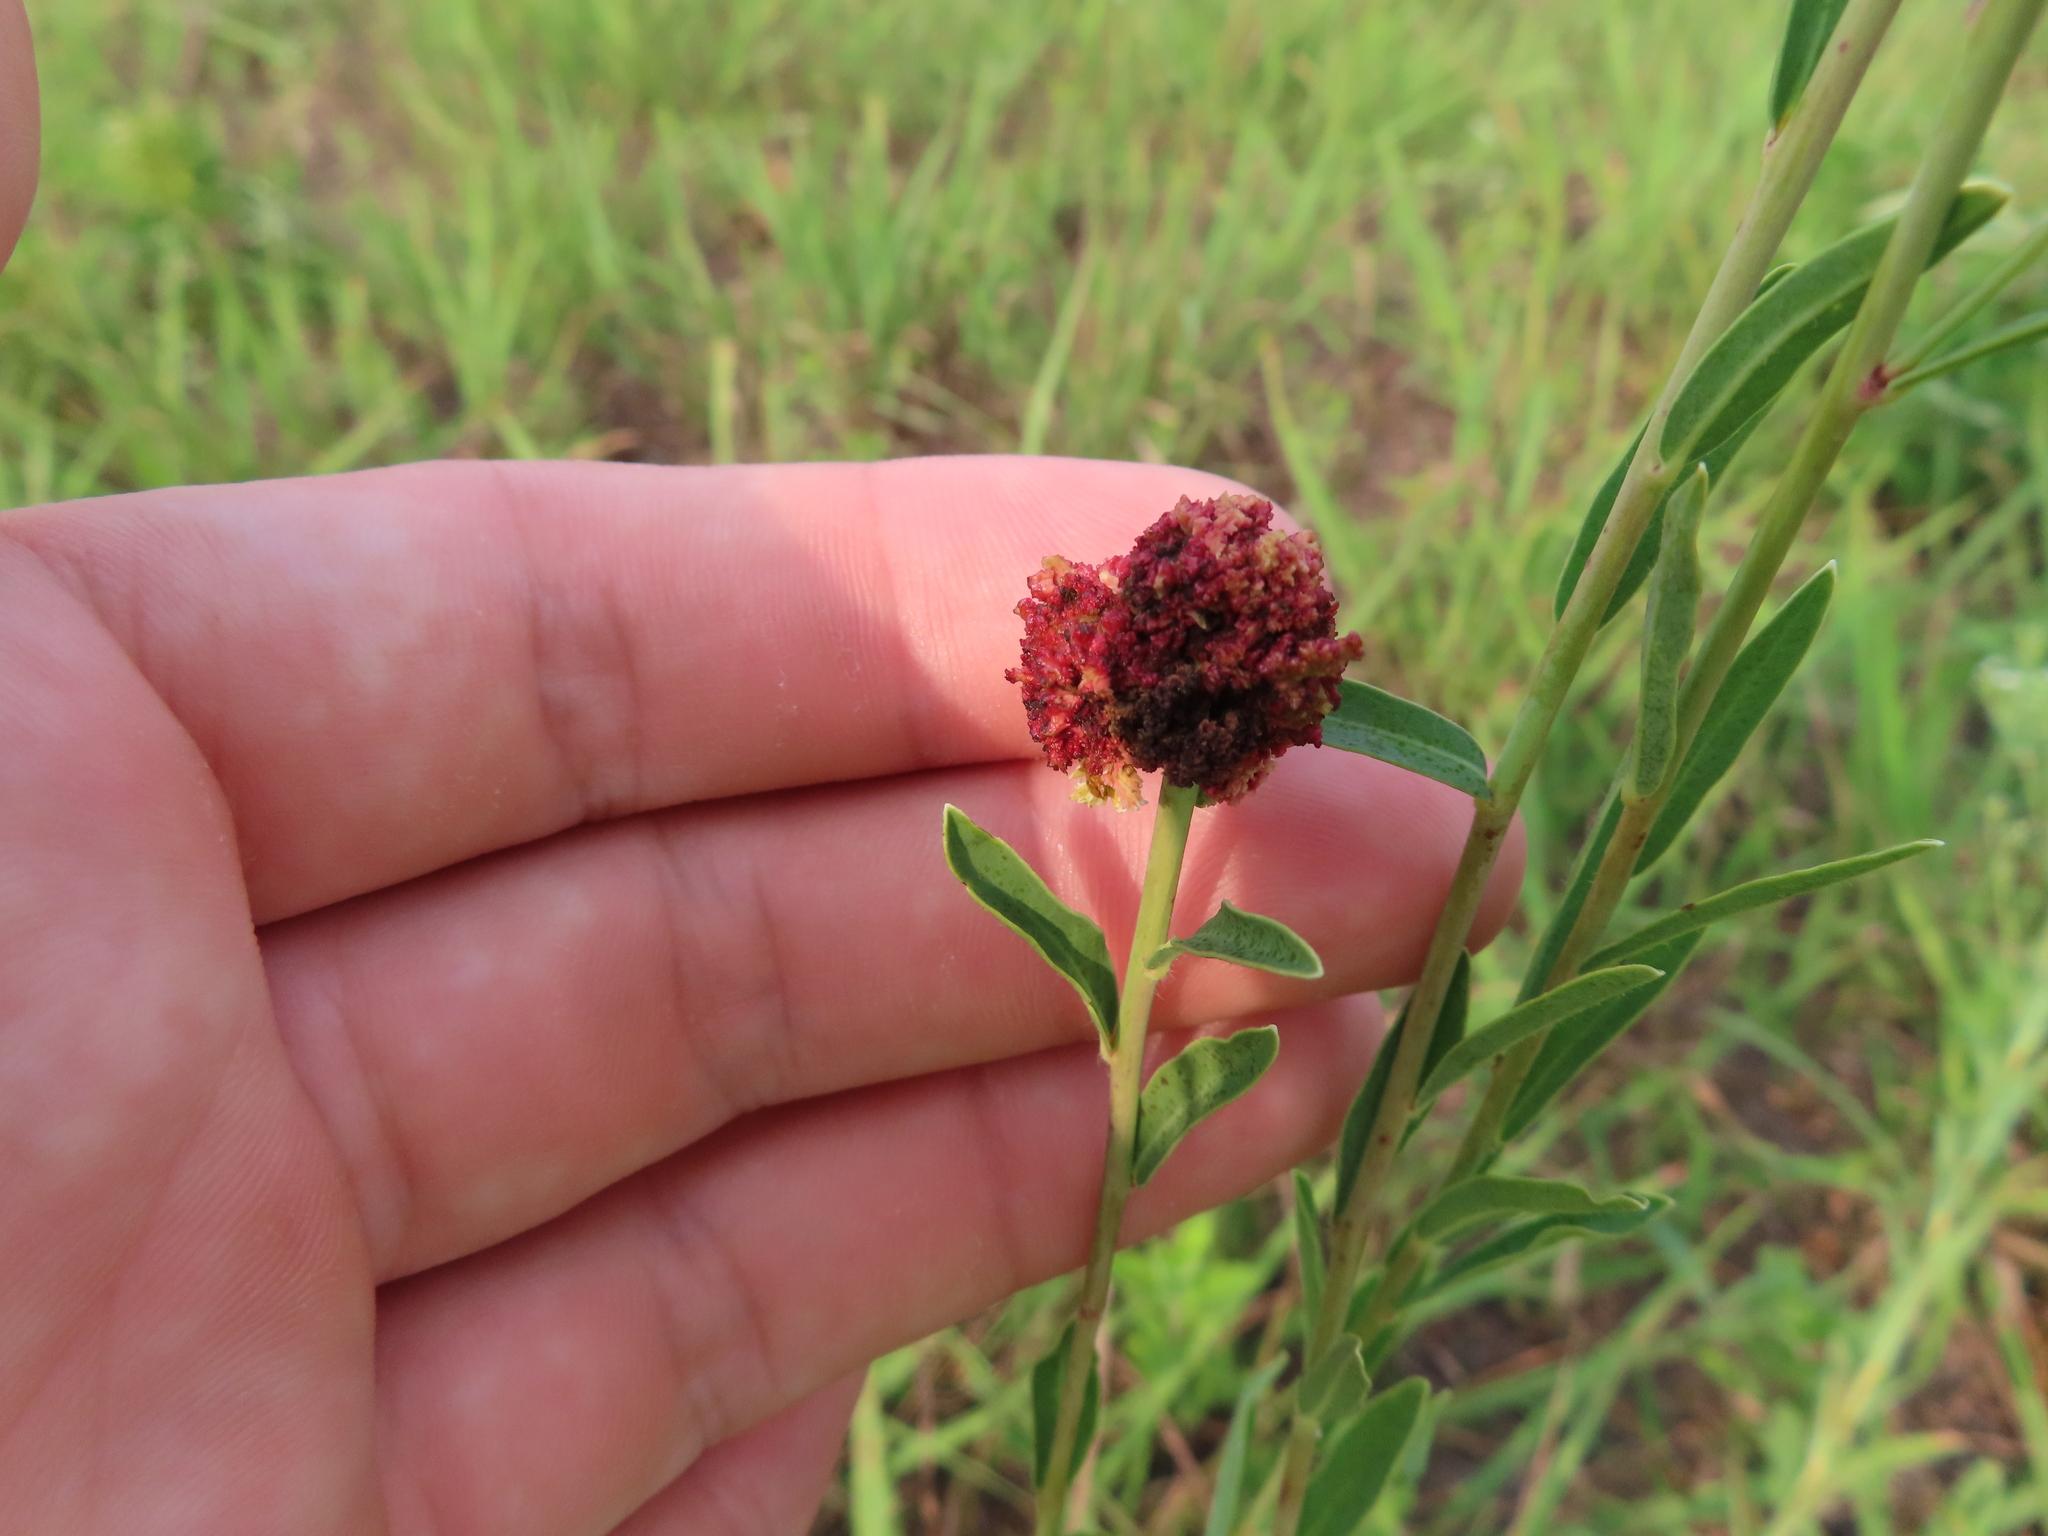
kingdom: Animalia
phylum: Arthropoda
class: Arachnida
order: Trombidiformes
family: Eriophyidae
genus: Aculops
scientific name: Aculops
